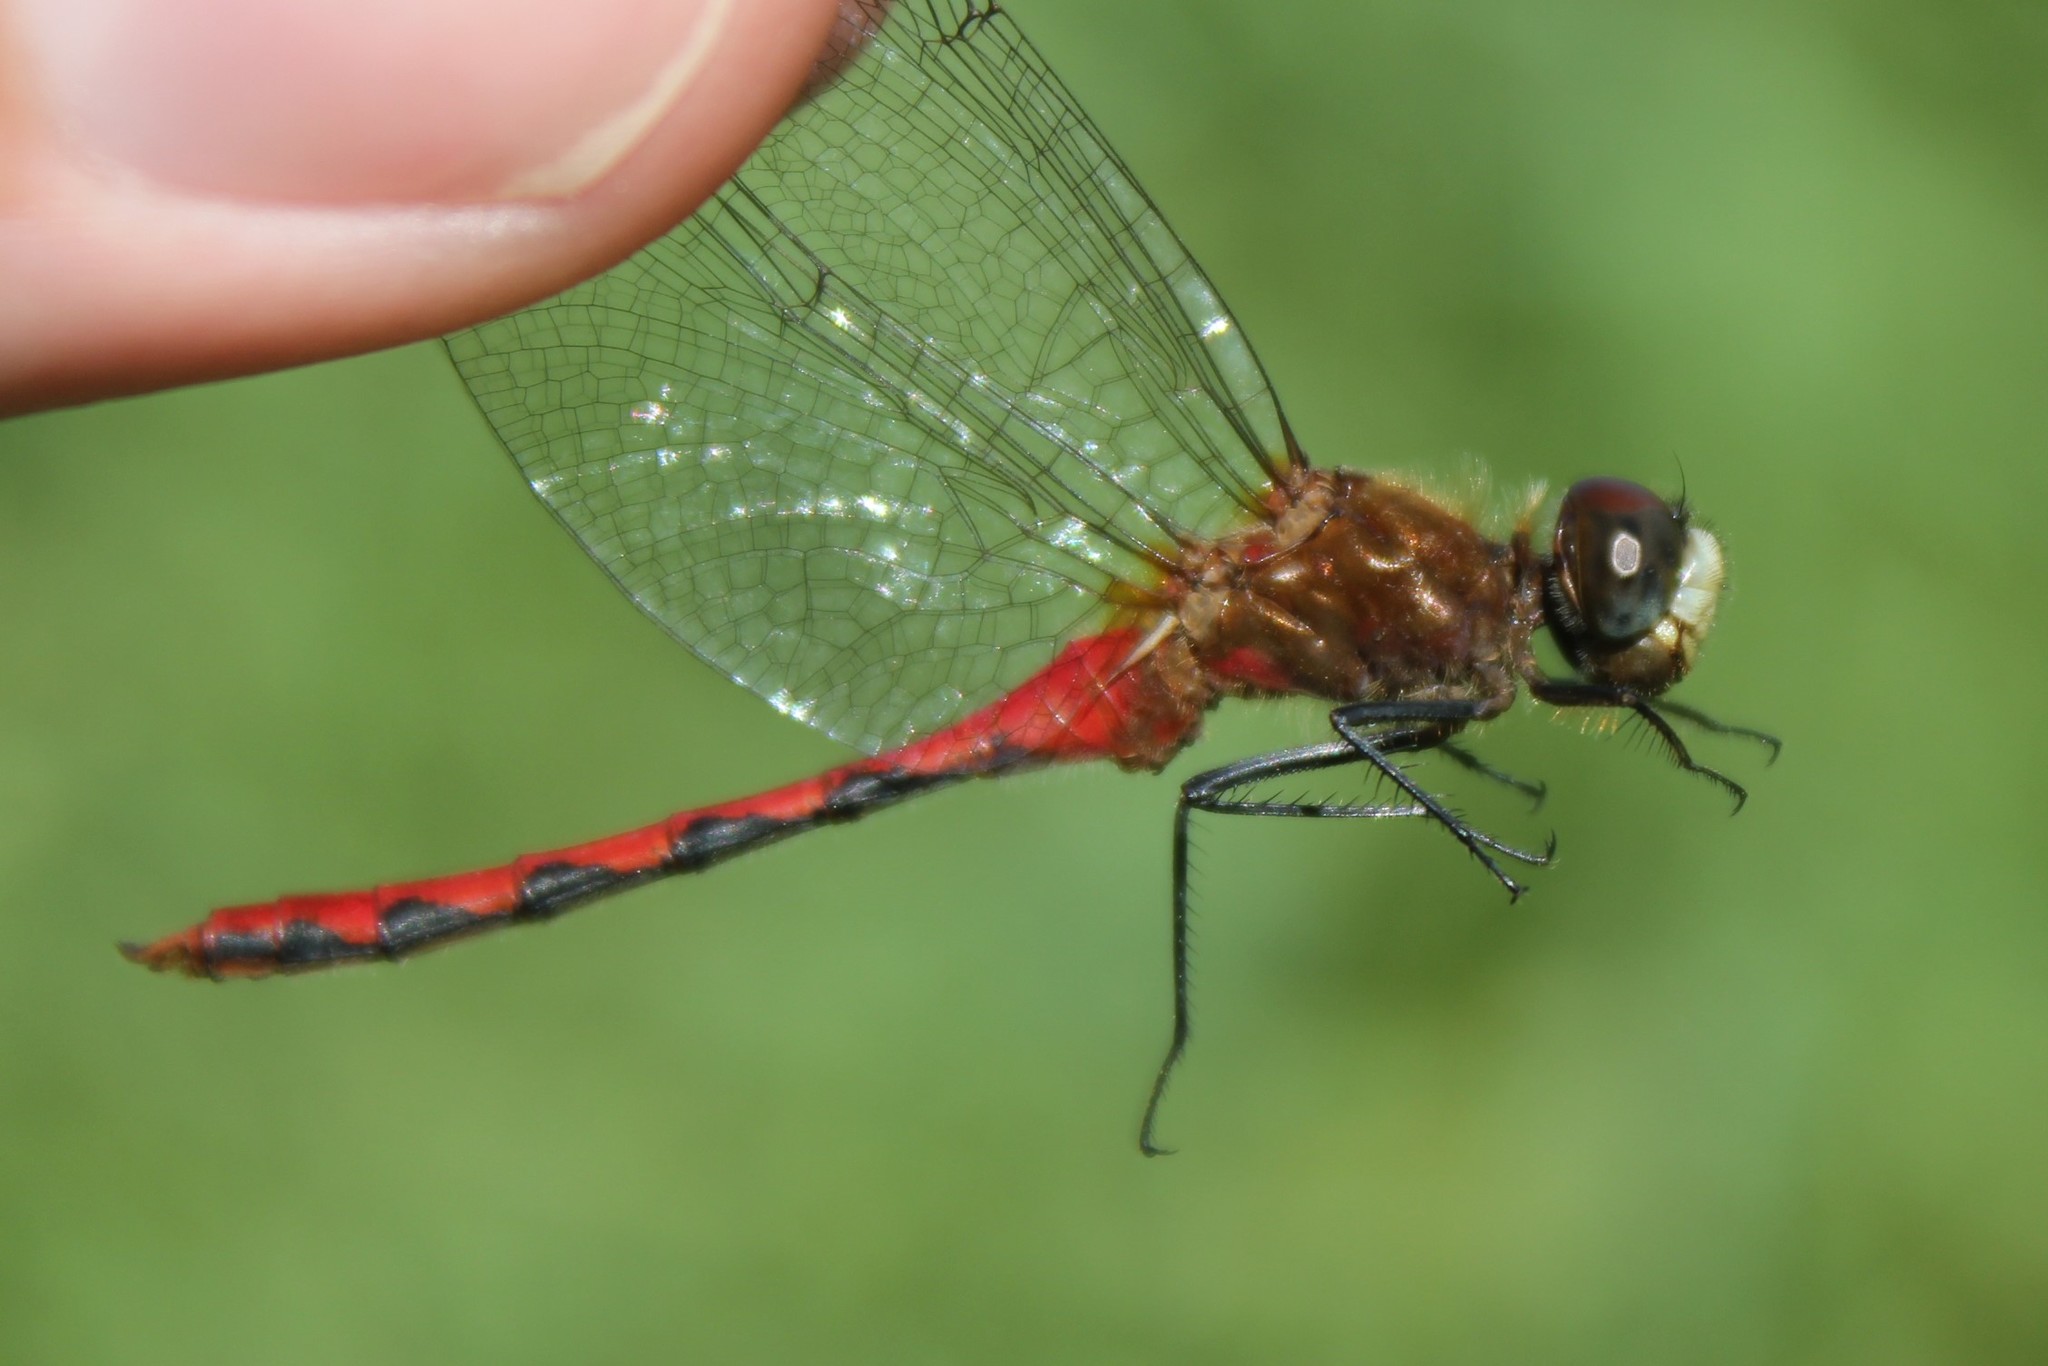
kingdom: Animalia
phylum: Arthropoda
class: Insecta
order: Odonata
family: Libellulidae
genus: Sympetrum
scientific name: Sympetrum obtrusum
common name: White-faced meadowhawk
